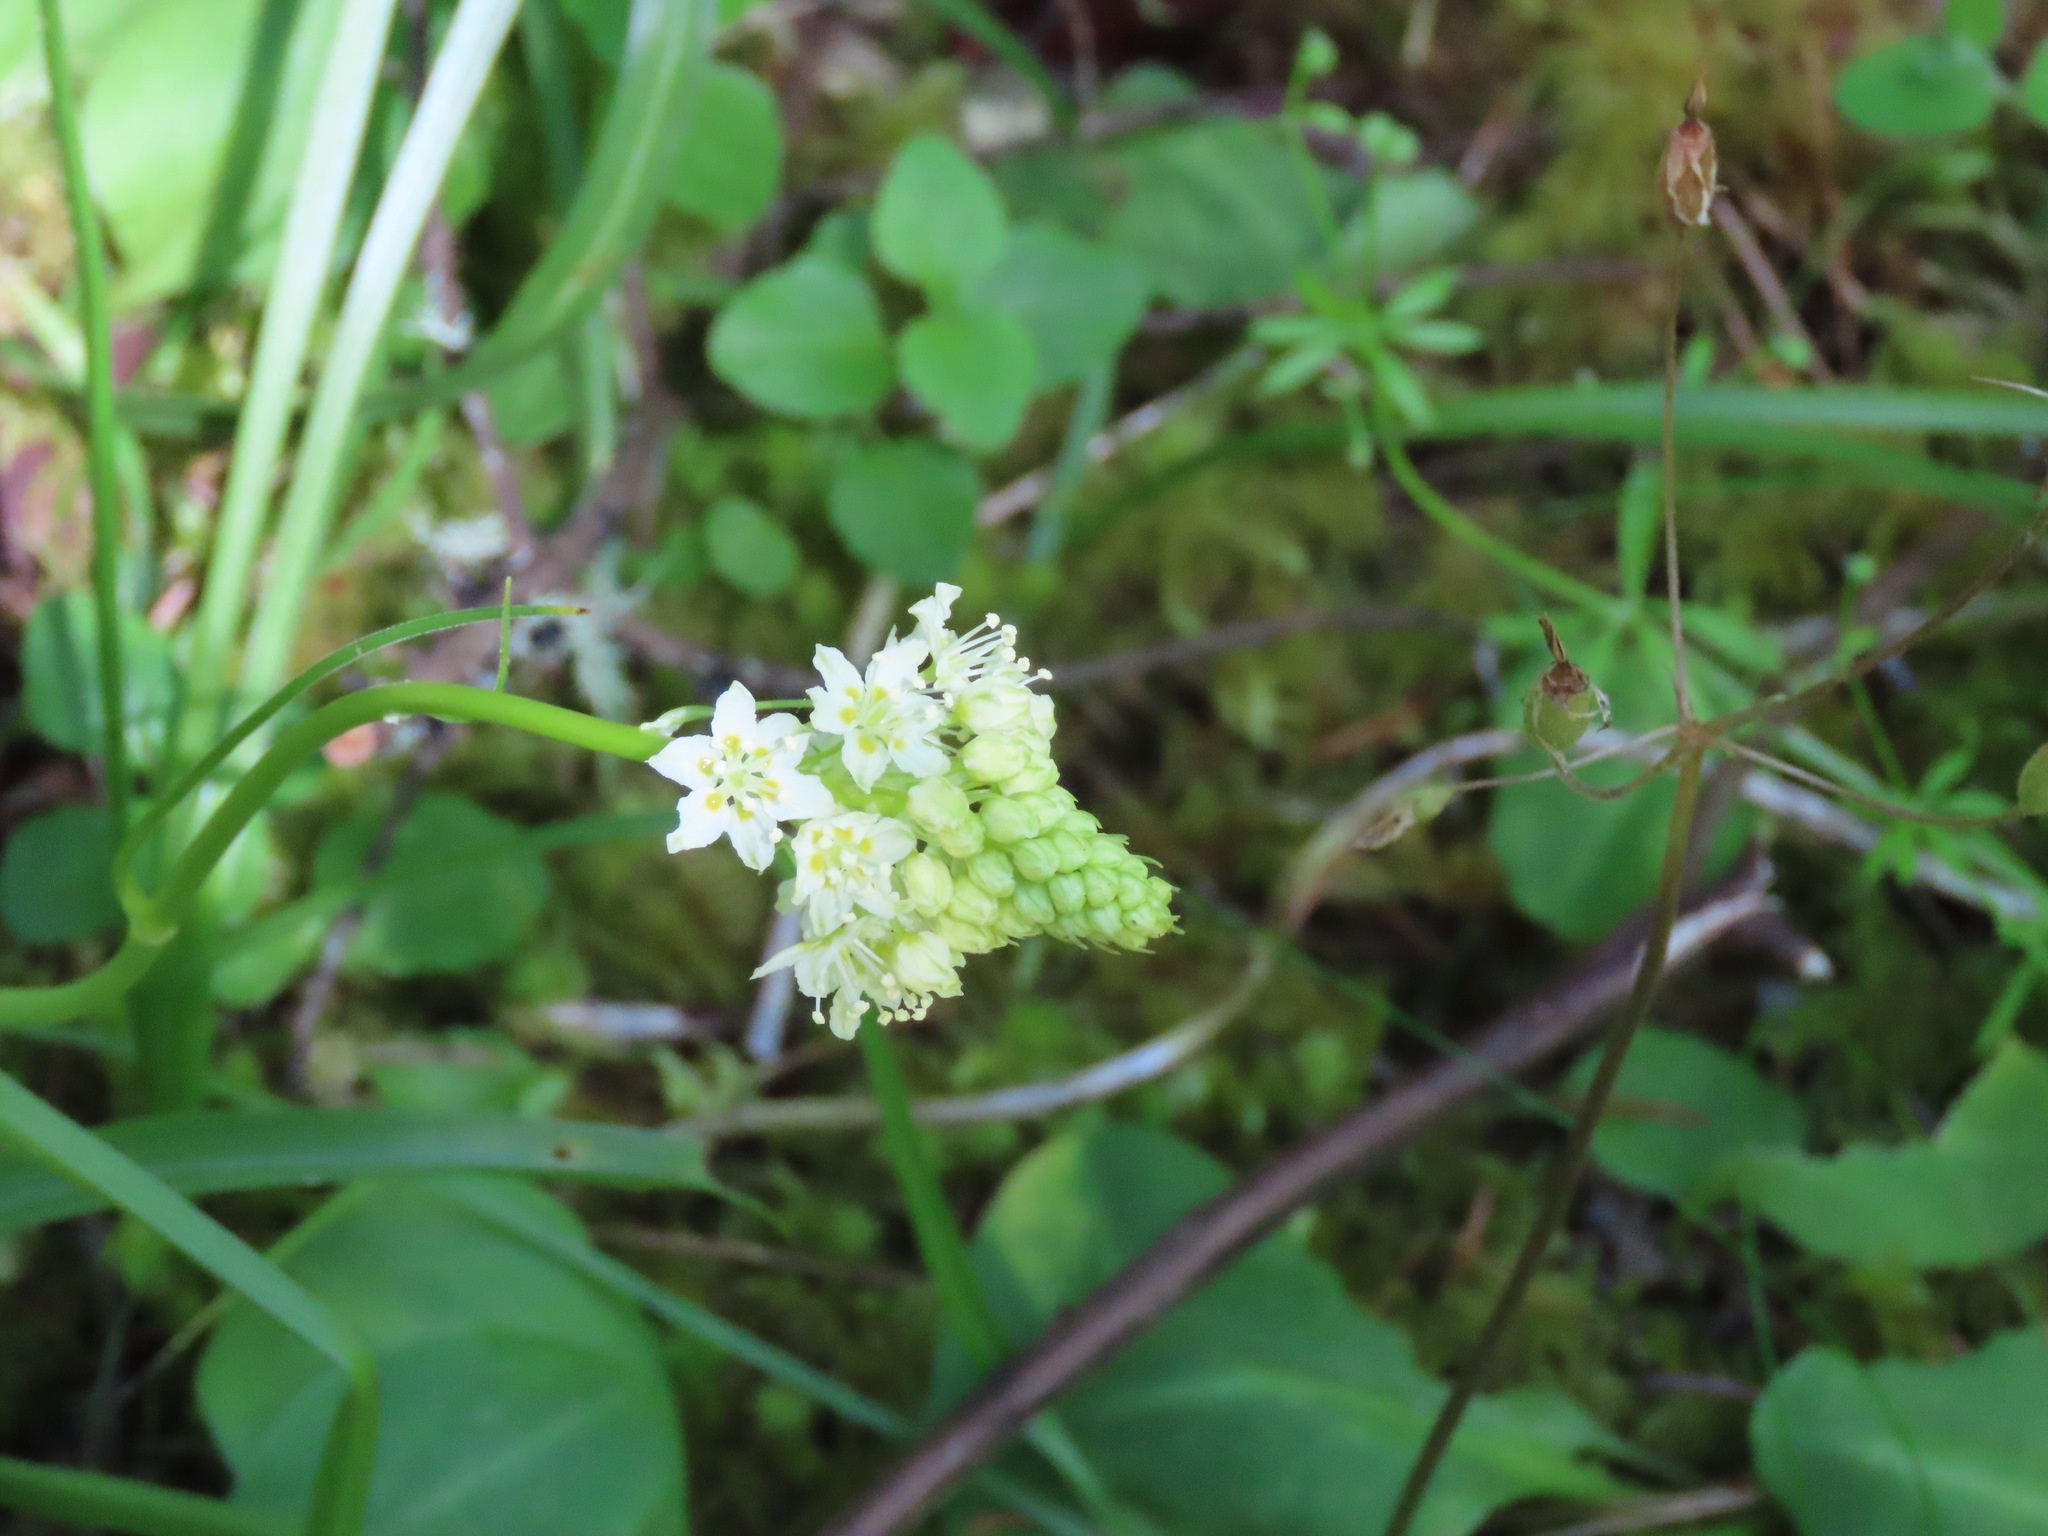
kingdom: Plantae
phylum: Tracheophyta
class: Liliopsida
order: Liliales
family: Melanthiaceae
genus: Toxicoscordion
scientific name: Toxicoscordion venenosum
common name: Meadow death camas
